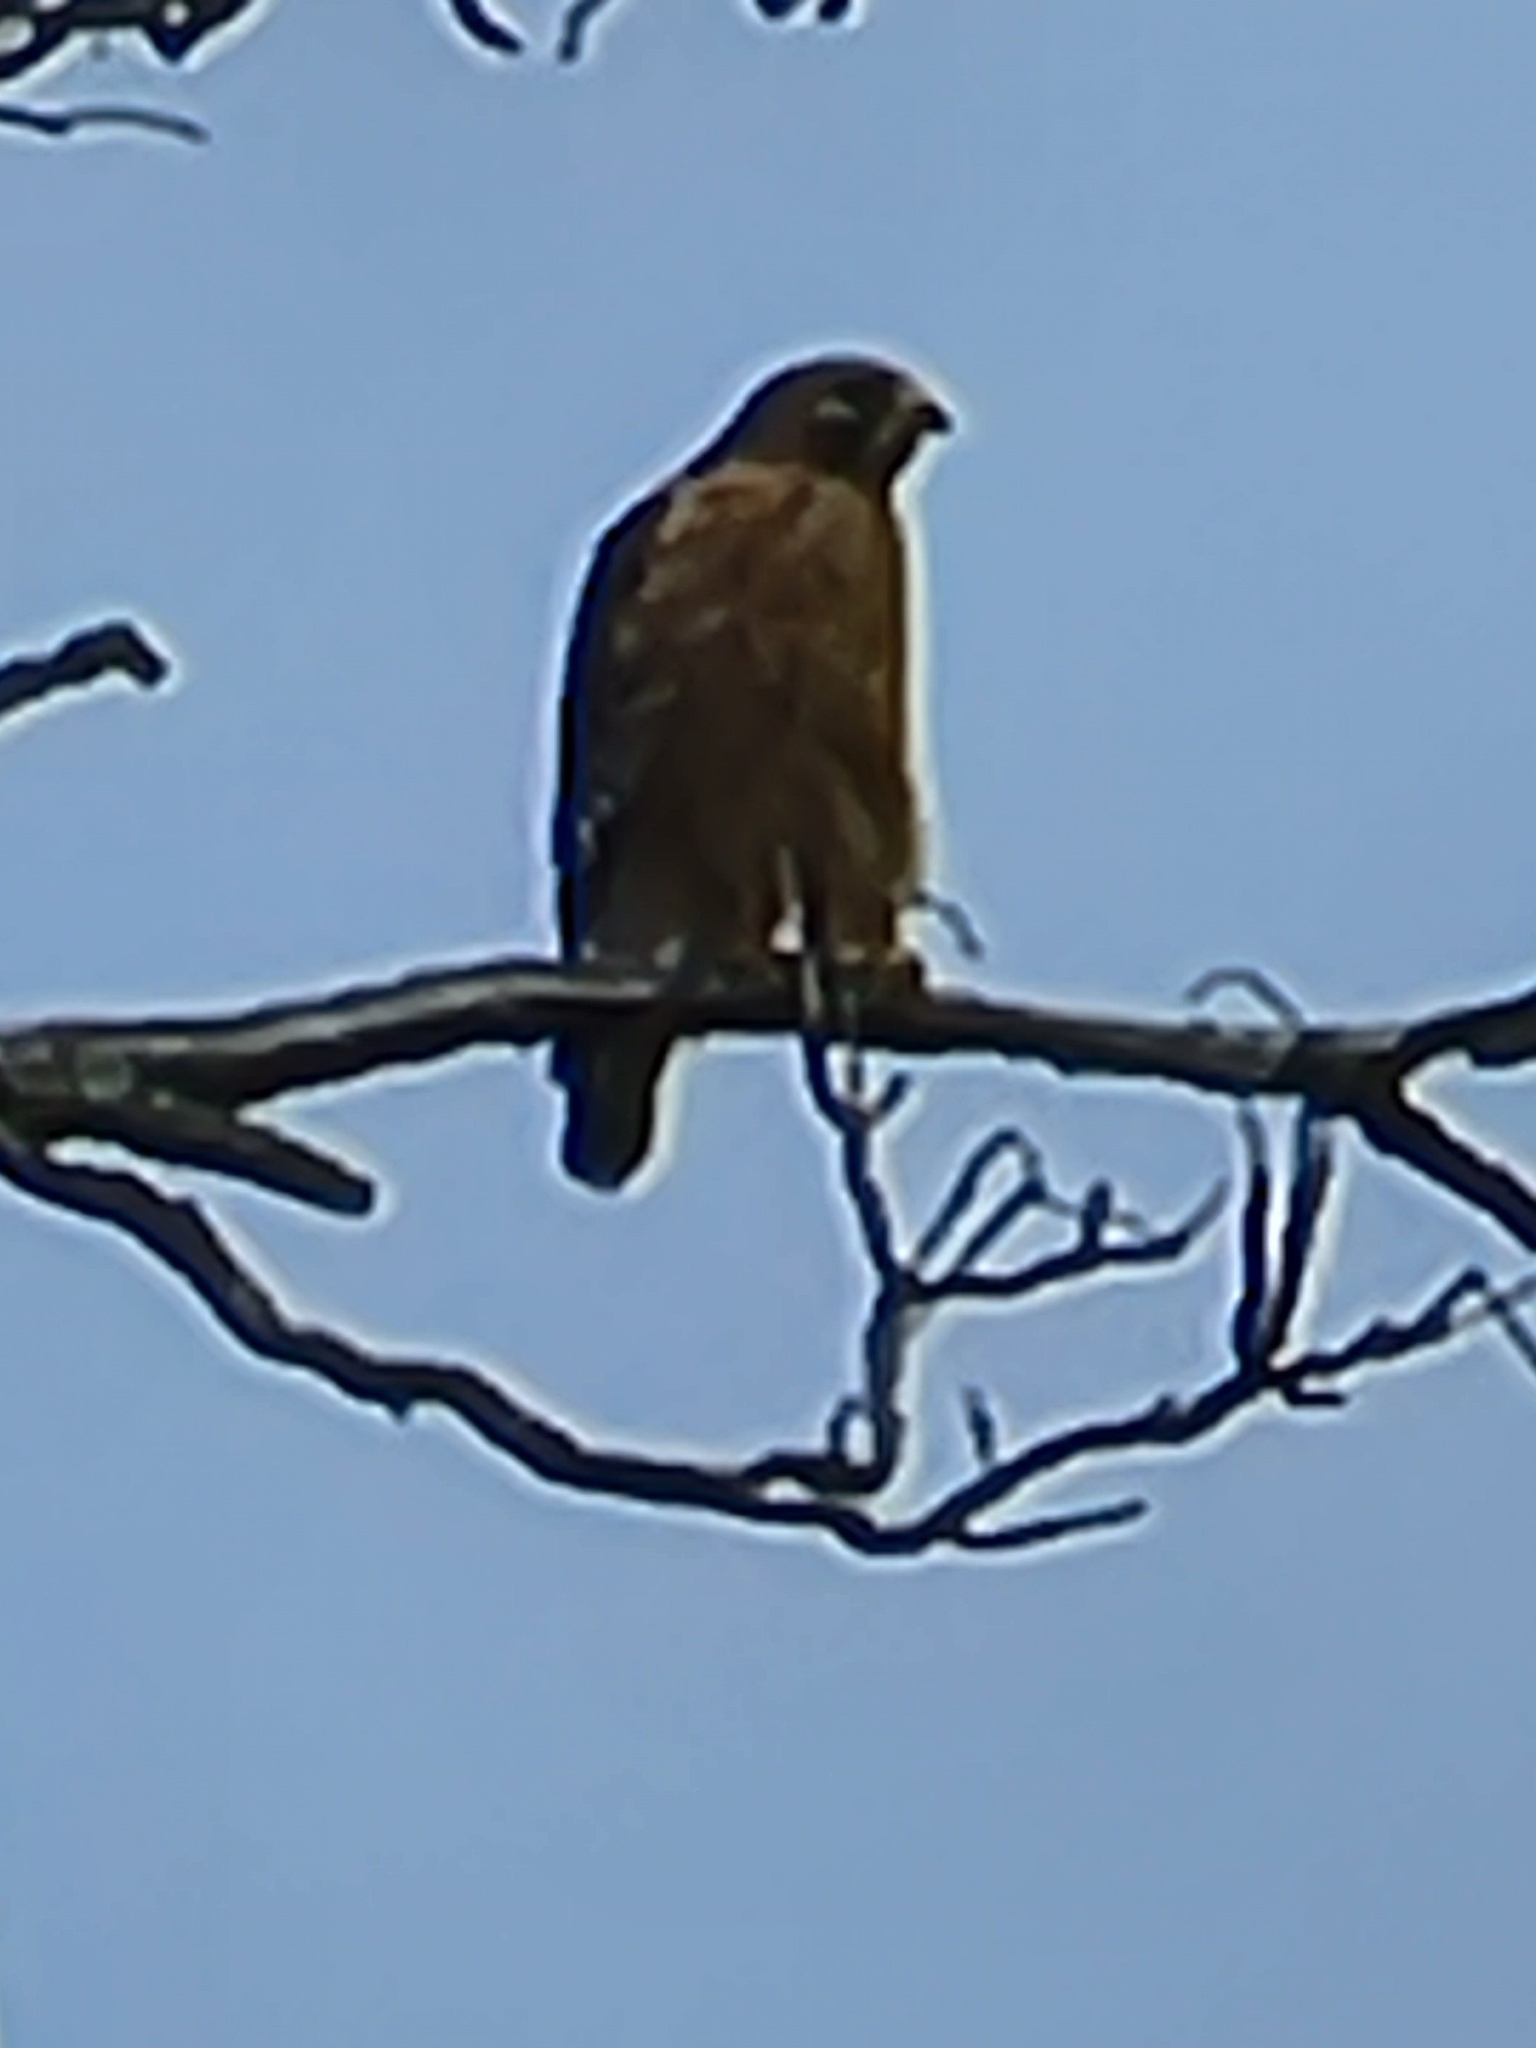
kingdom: Animalia
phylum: Chordata
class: Aves
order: Accipitriformes
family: Accipitridae
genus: Buteo
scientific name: Buteo lineatus
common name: Red-shouldered hawk
